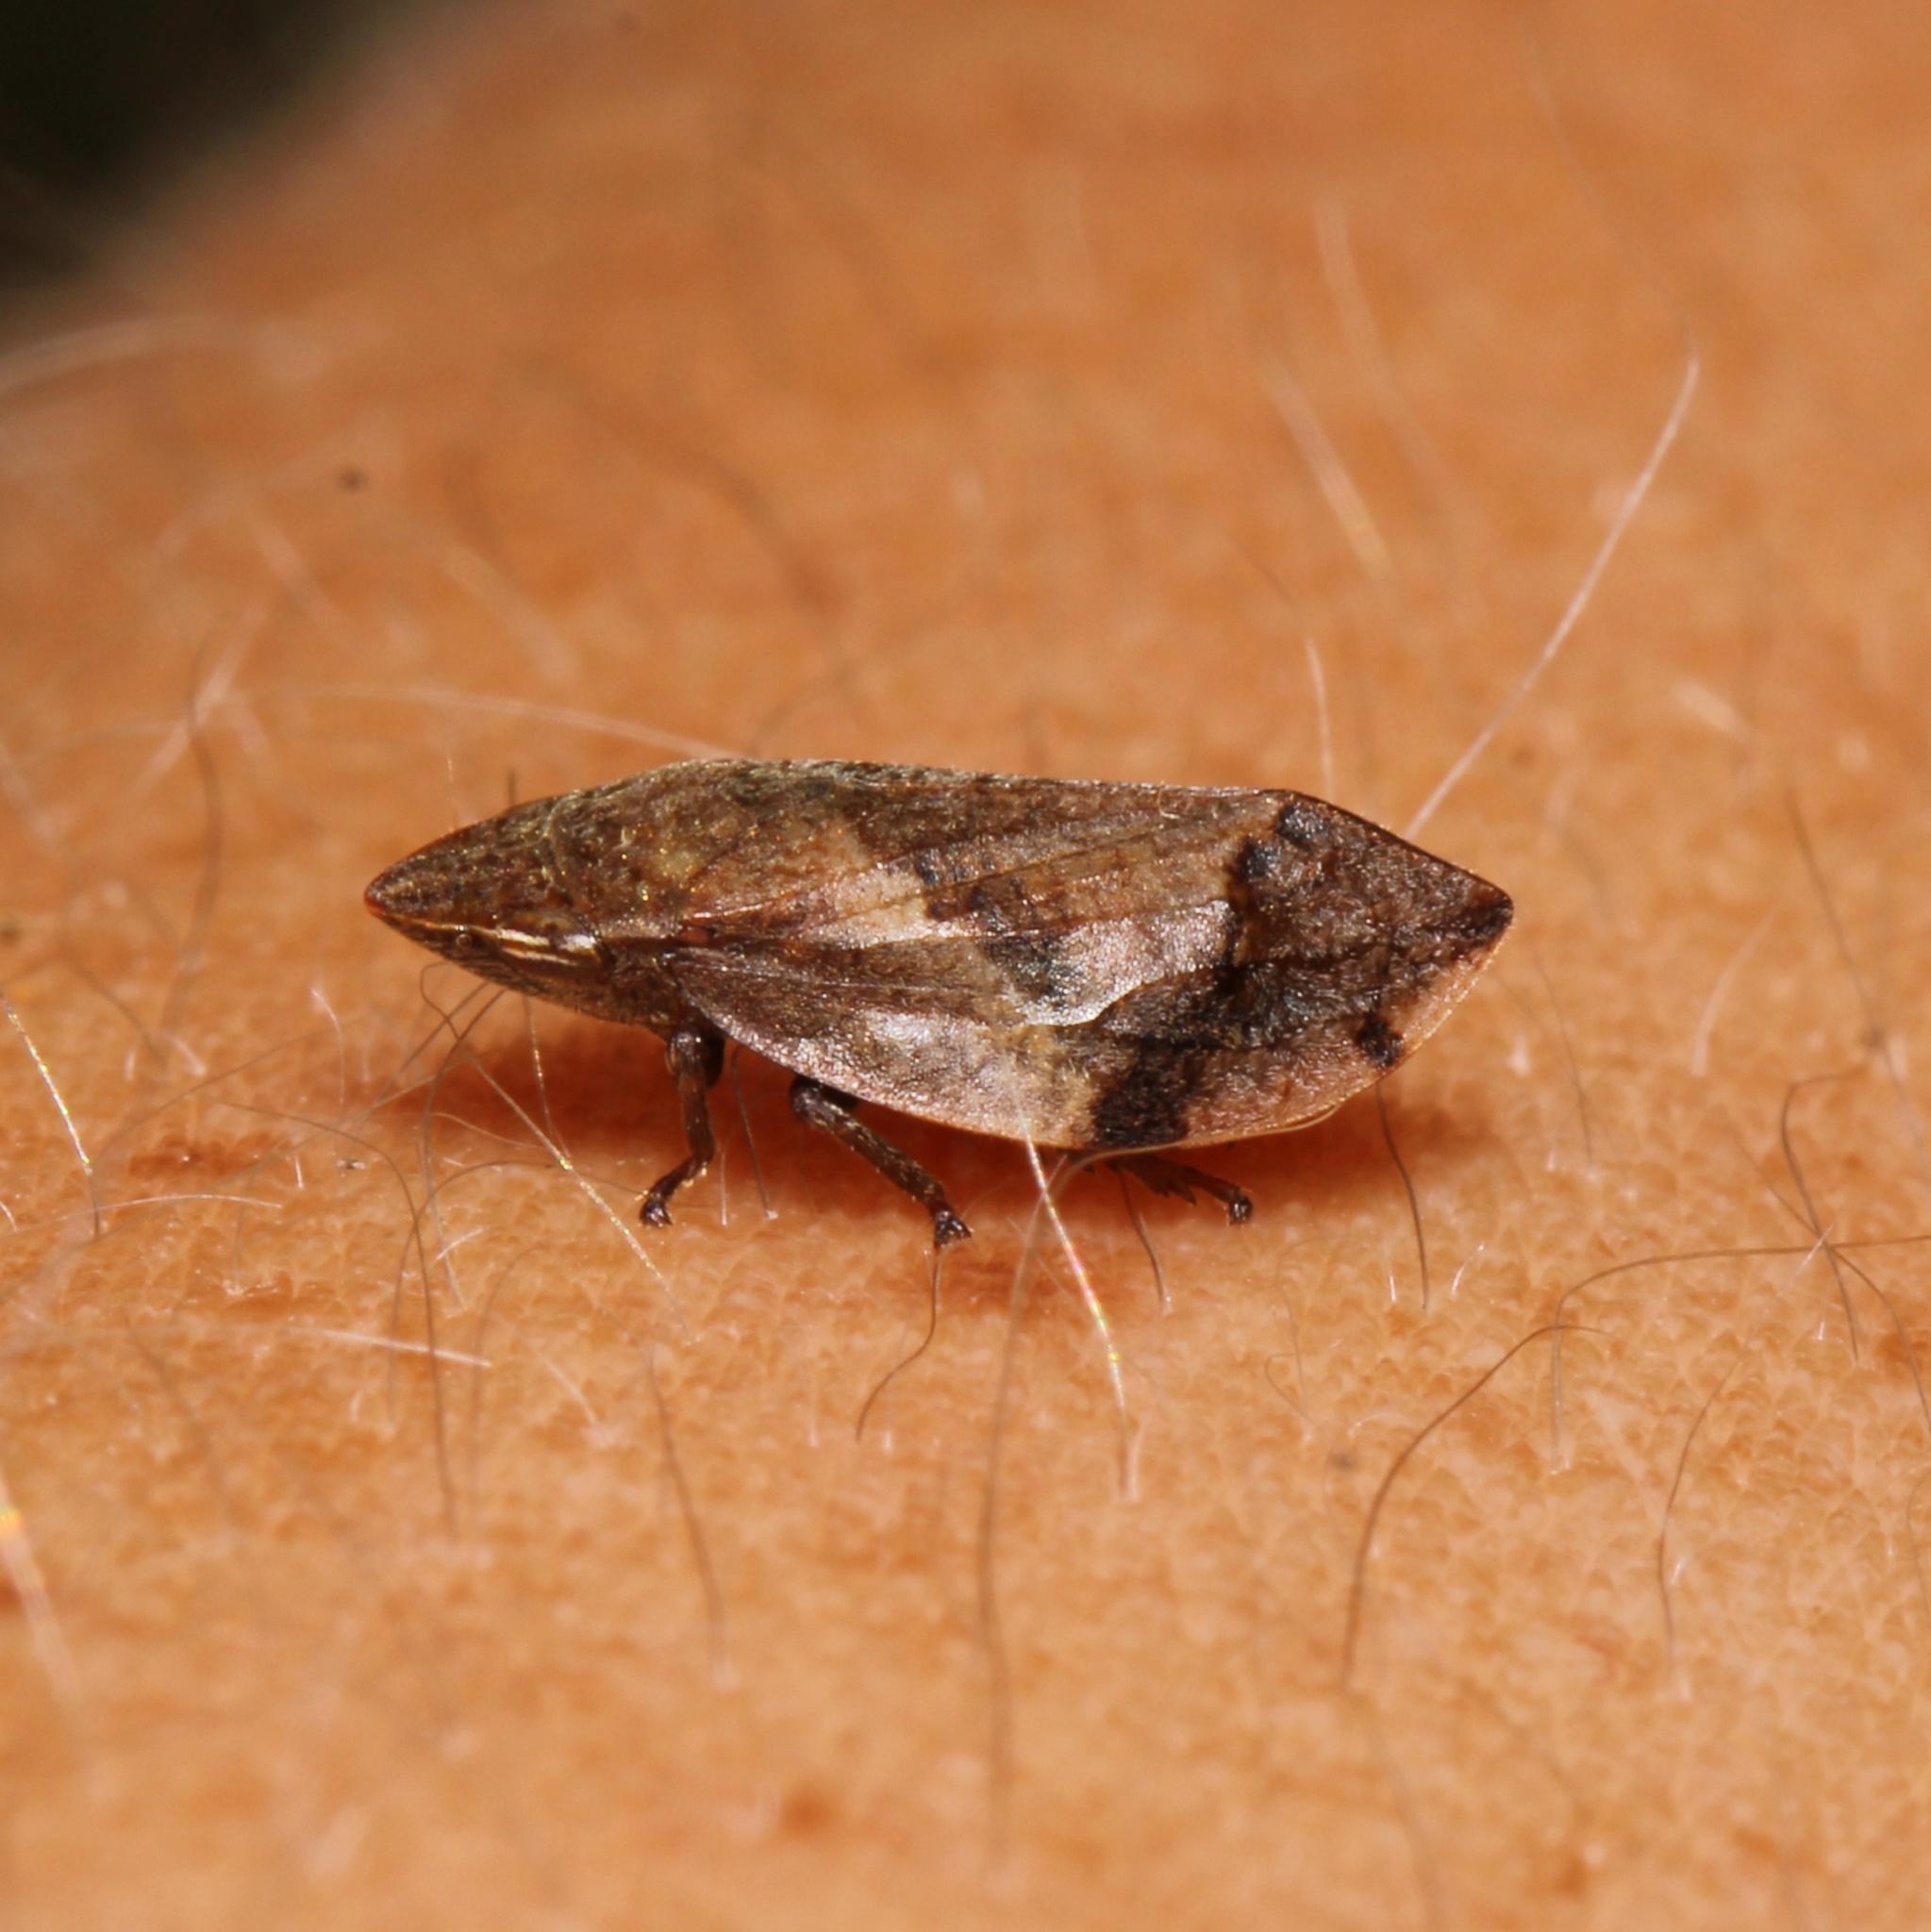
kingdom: Animalia
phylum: Arthropoda
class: Insecta
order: Hemiptera
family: Aphrophoridae
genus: Lepyronia
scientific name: Lepyronia quadrangularis
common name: Diamond-backed spittlebug
